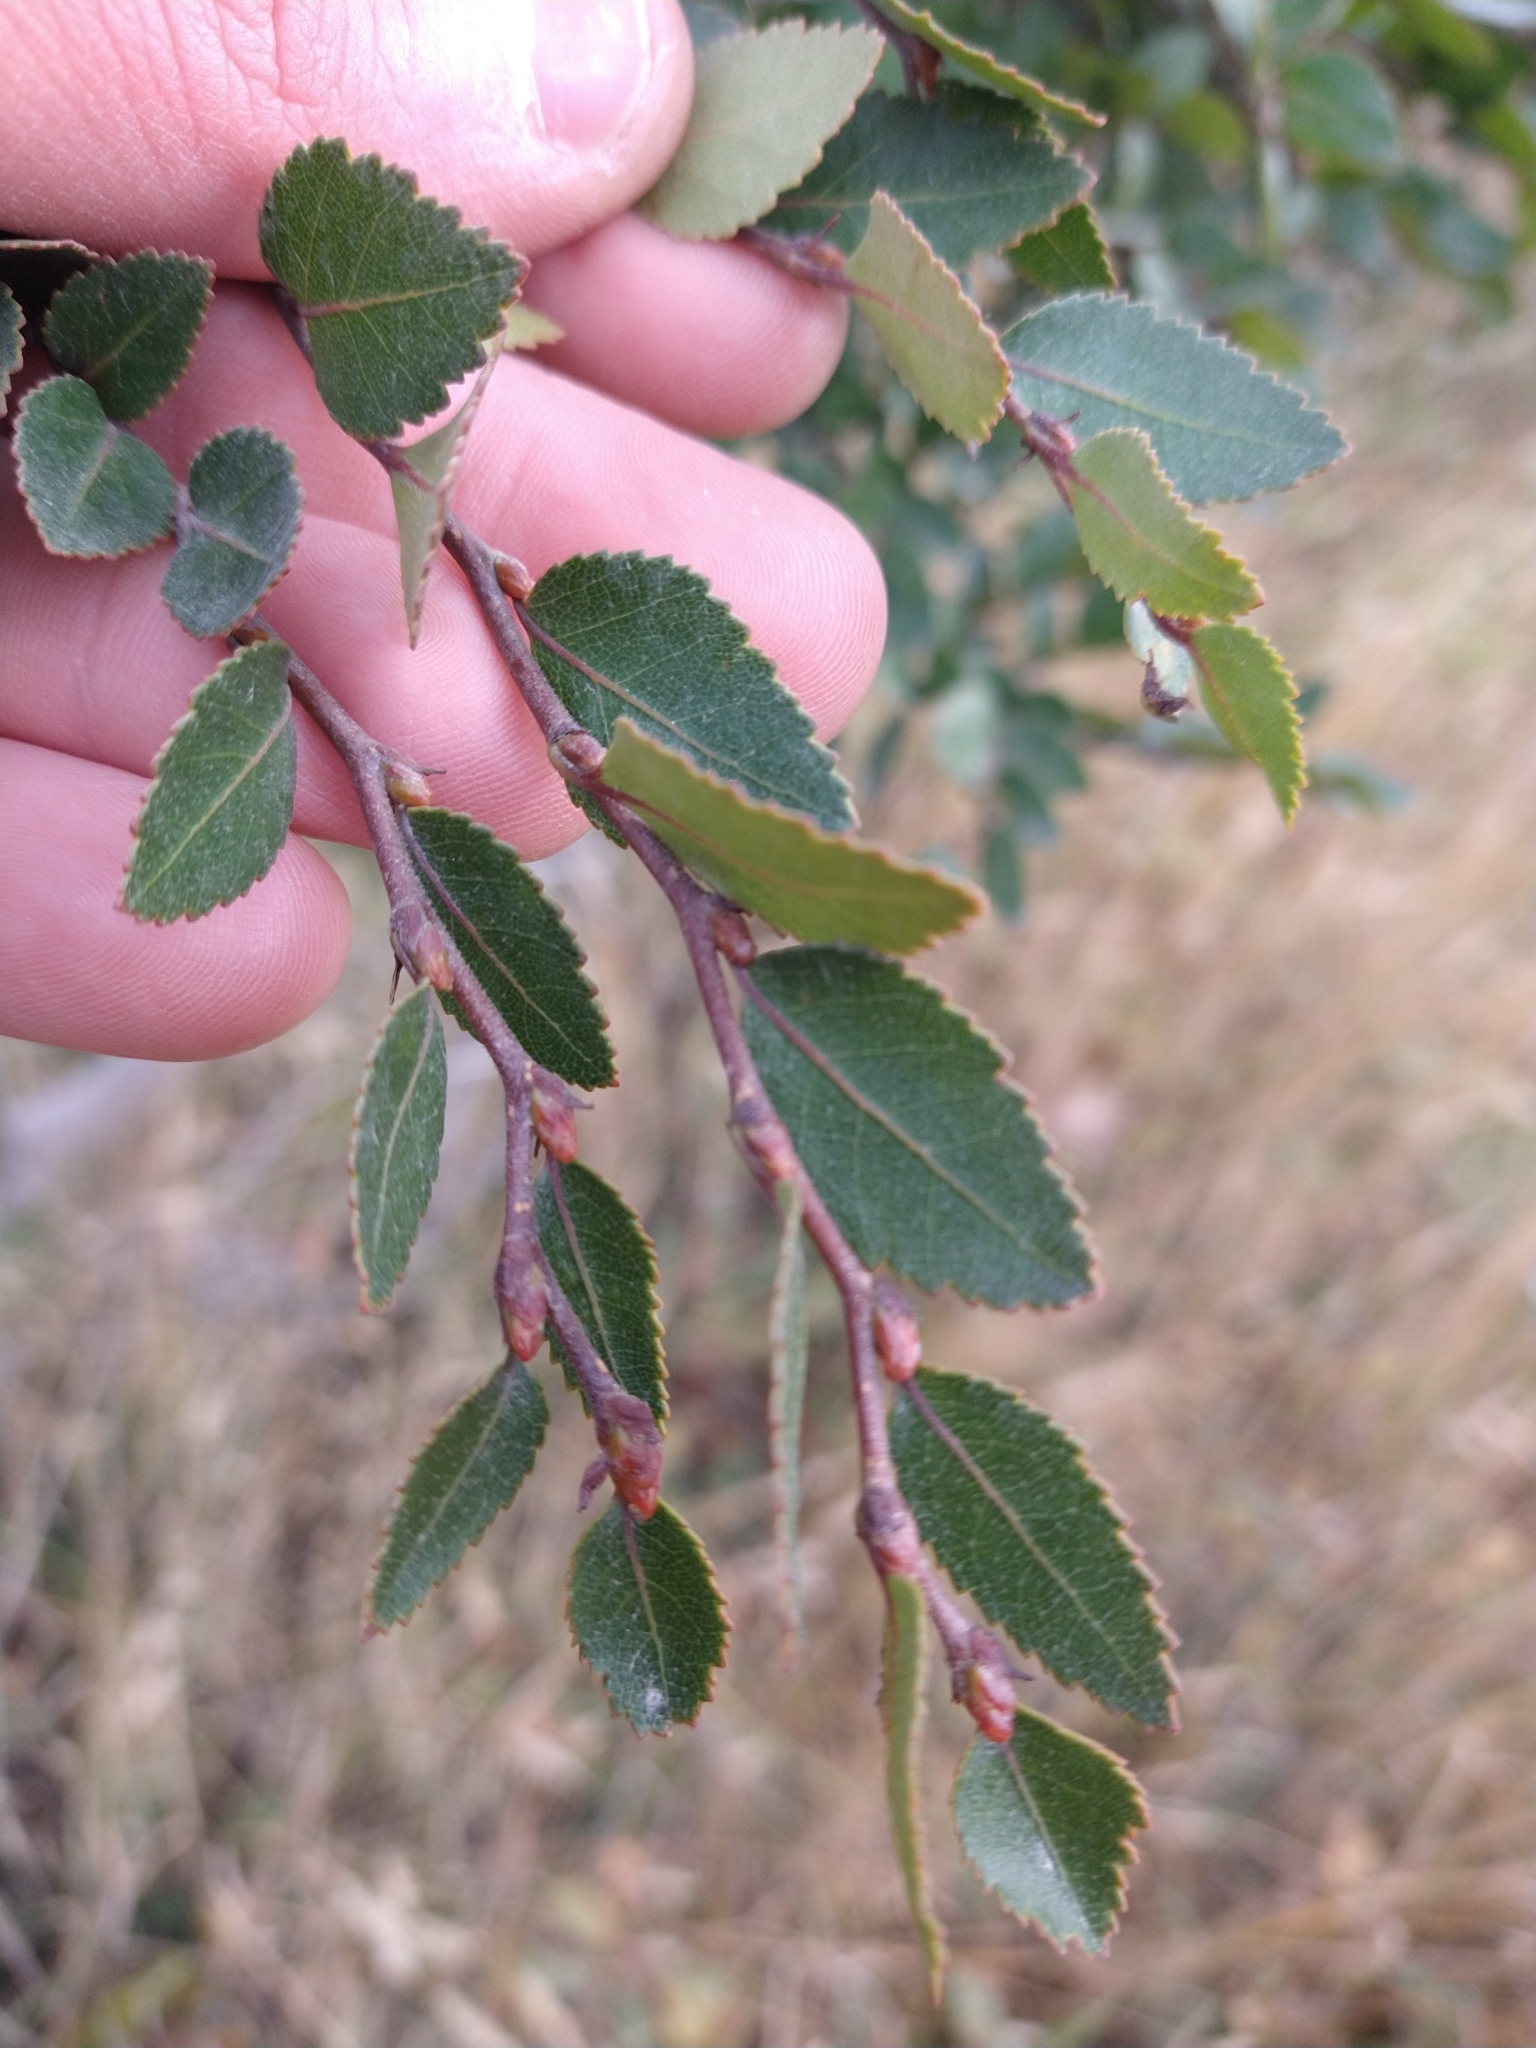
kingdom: Plantae
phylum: Tracheophyta
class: Magnoliopsida
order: Fagales
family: Nothofagaceae
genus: Nothofagus
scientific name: Nothofagus betuloides
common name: Magellan's beech
